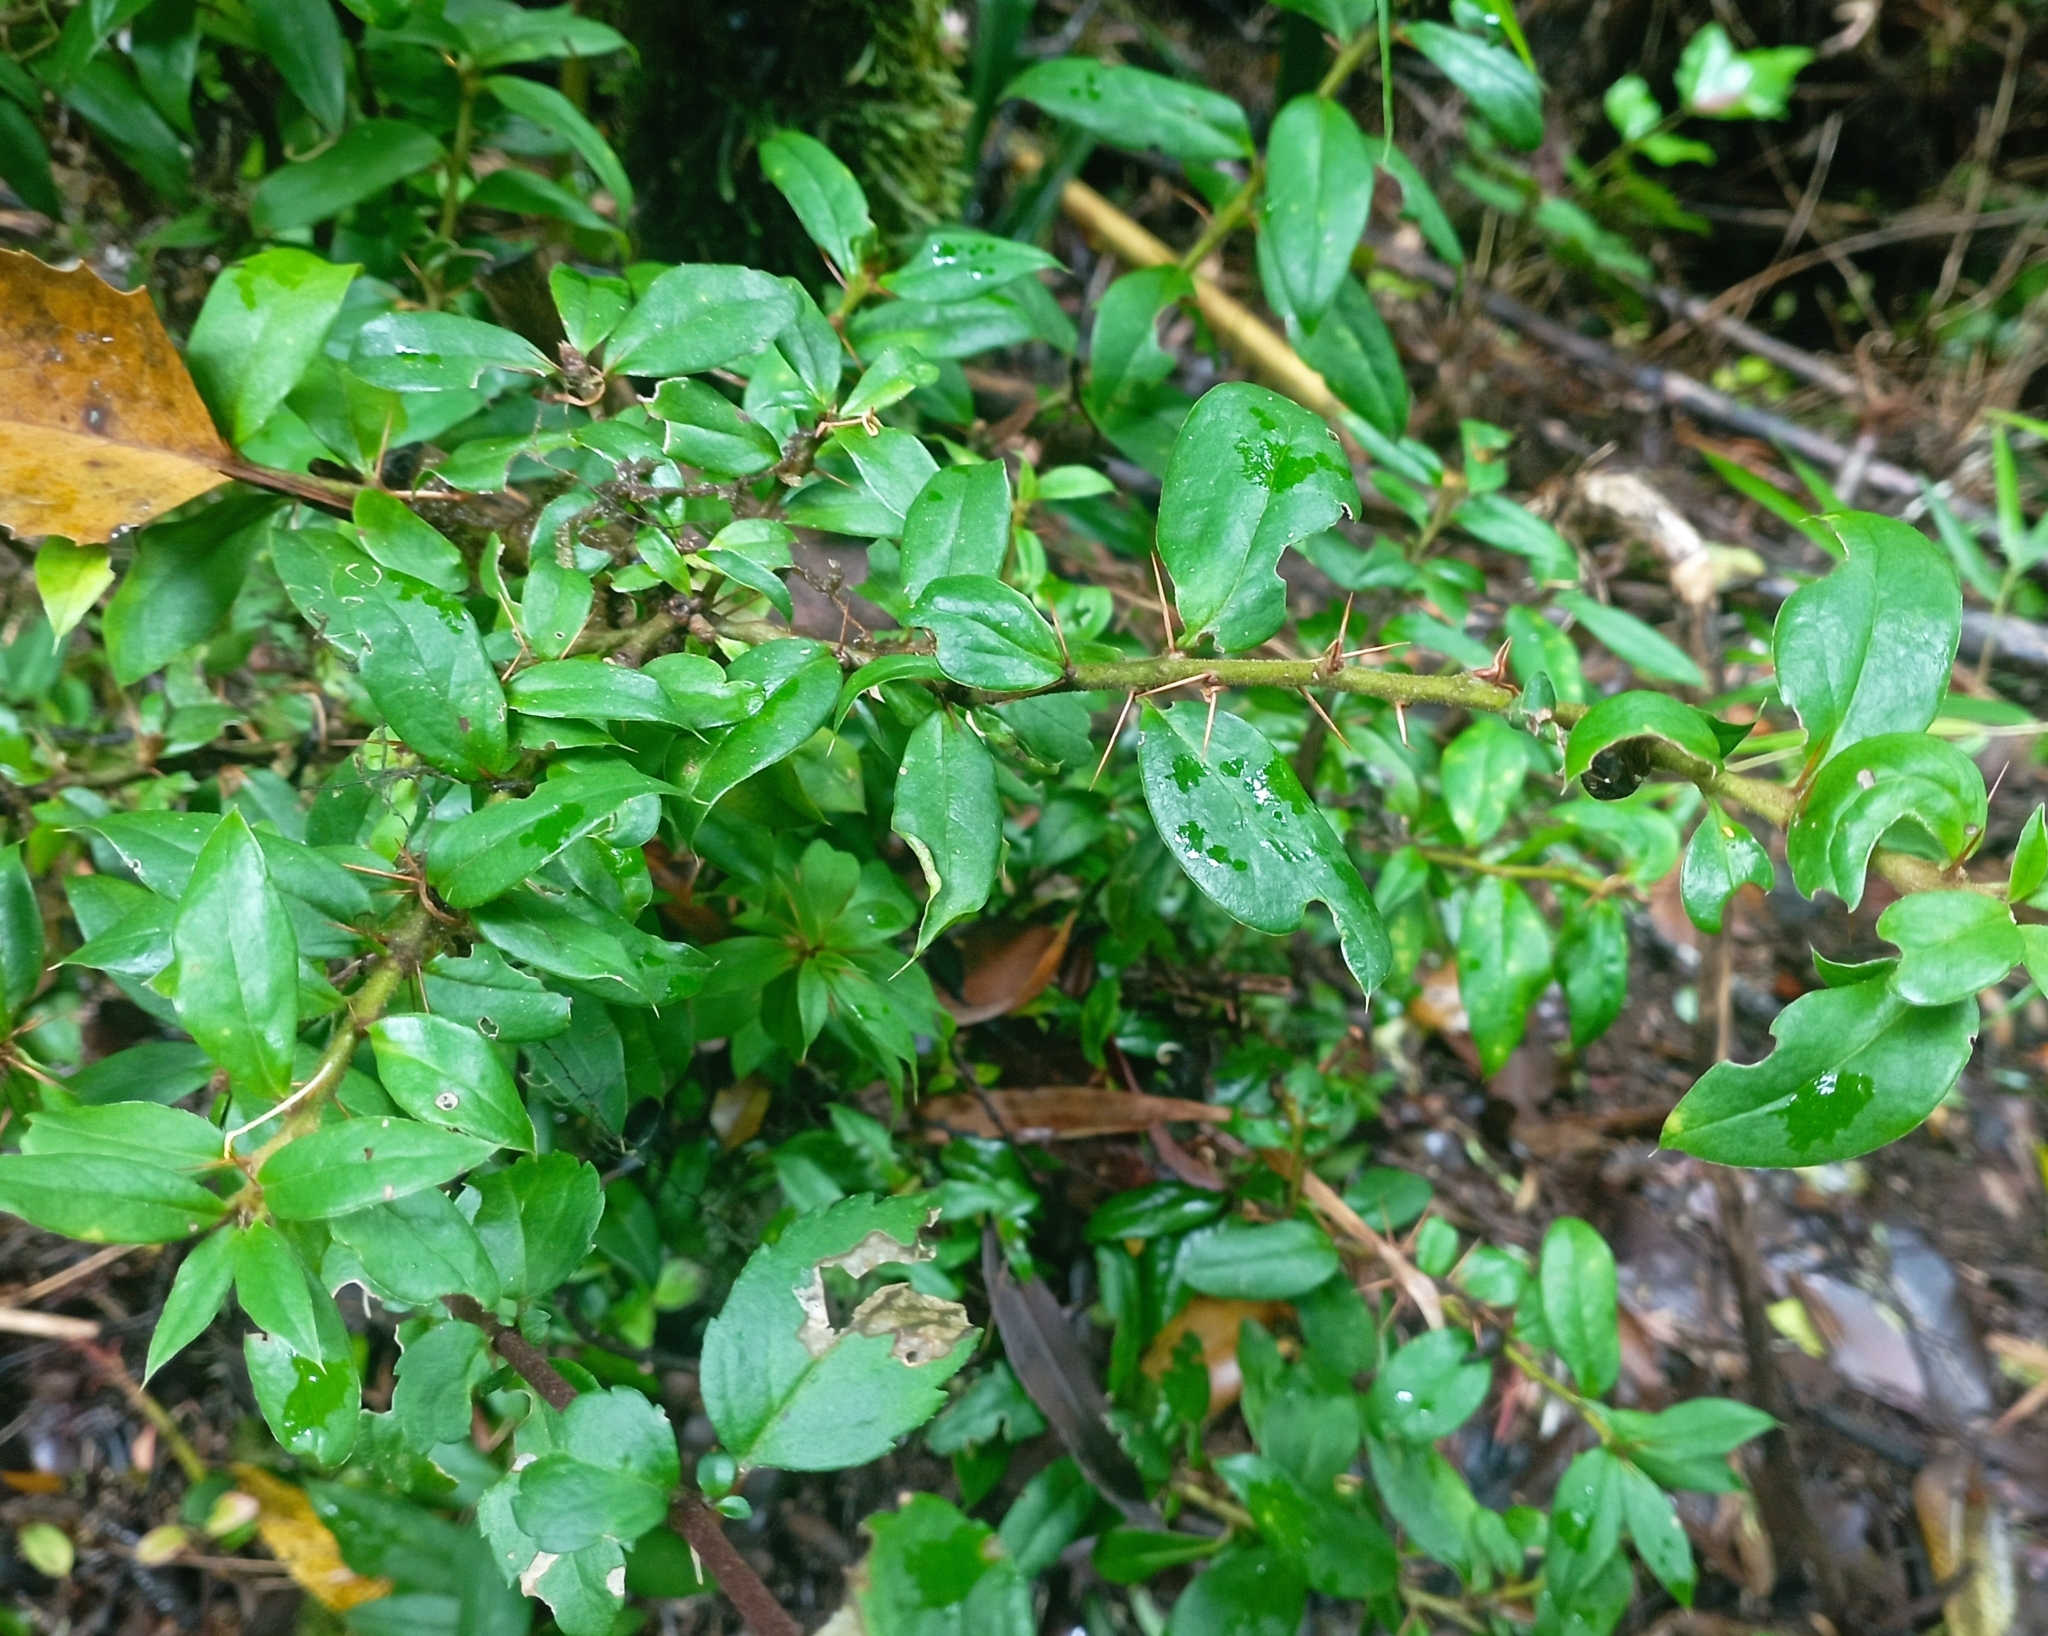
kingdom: Plantae
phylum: Tracheophyta
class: Magnoliopsida
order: Asterales
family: Asteraceae
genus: Archidasyphyllum
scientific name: Archidasyphyllum diacanthoides
